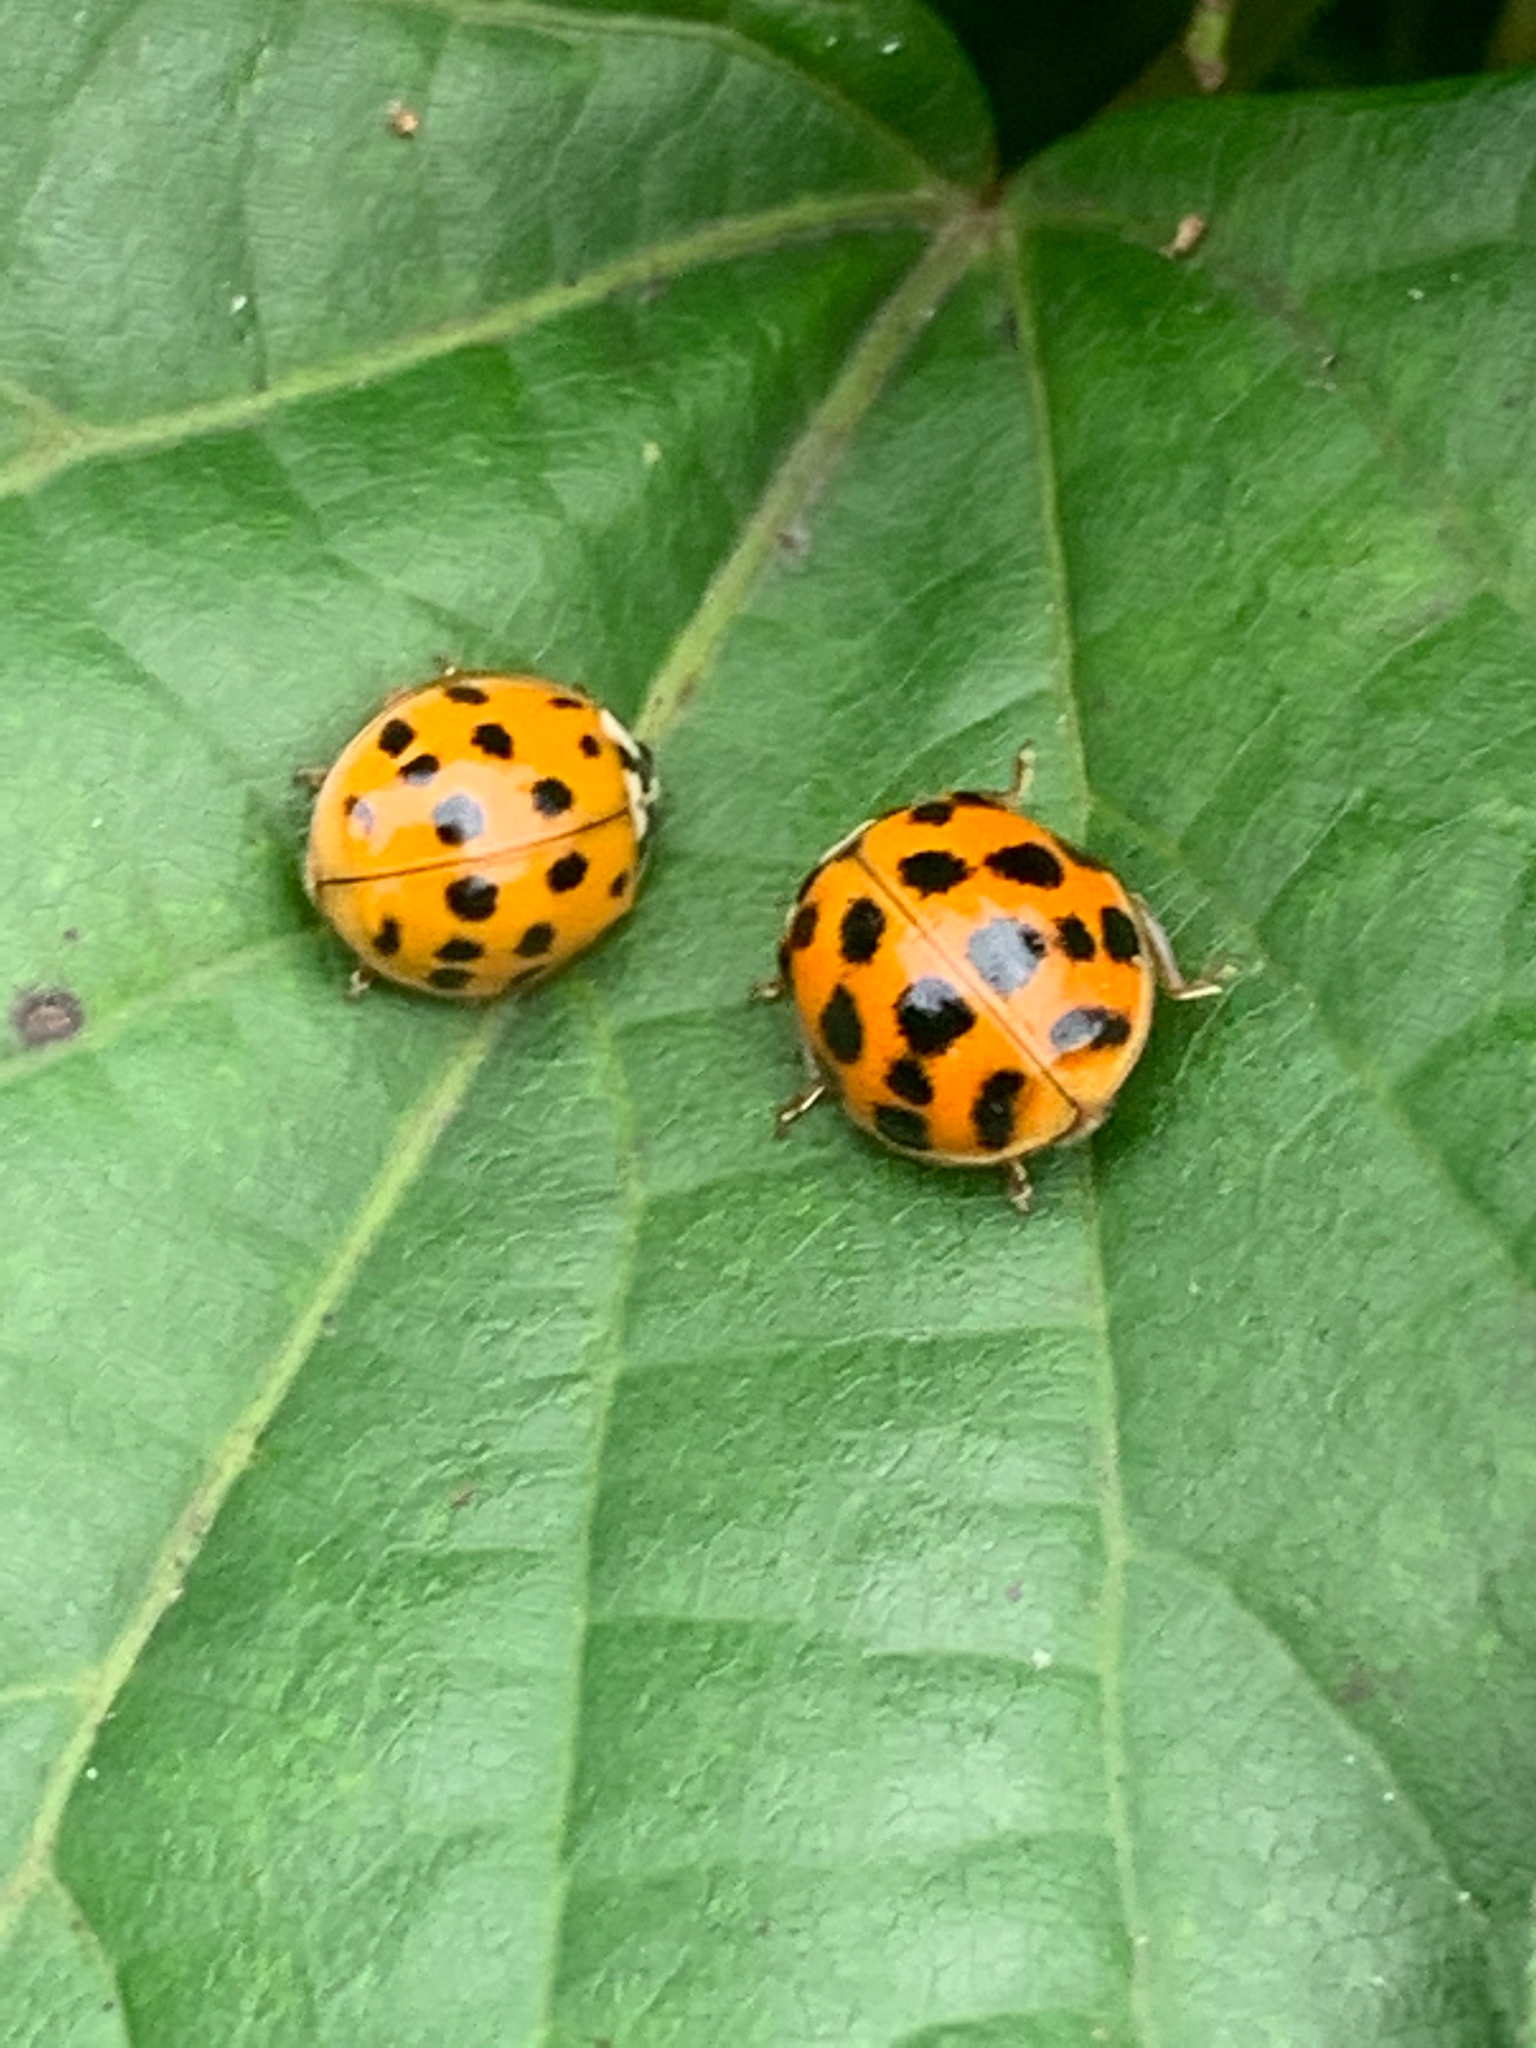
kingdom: Animalia
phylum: Arthropoda
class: Insecta
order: Coleoptera
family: Coccinellidae
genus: Harmonia
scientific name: Harmonia axyridis
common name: Harlequin ladybird
